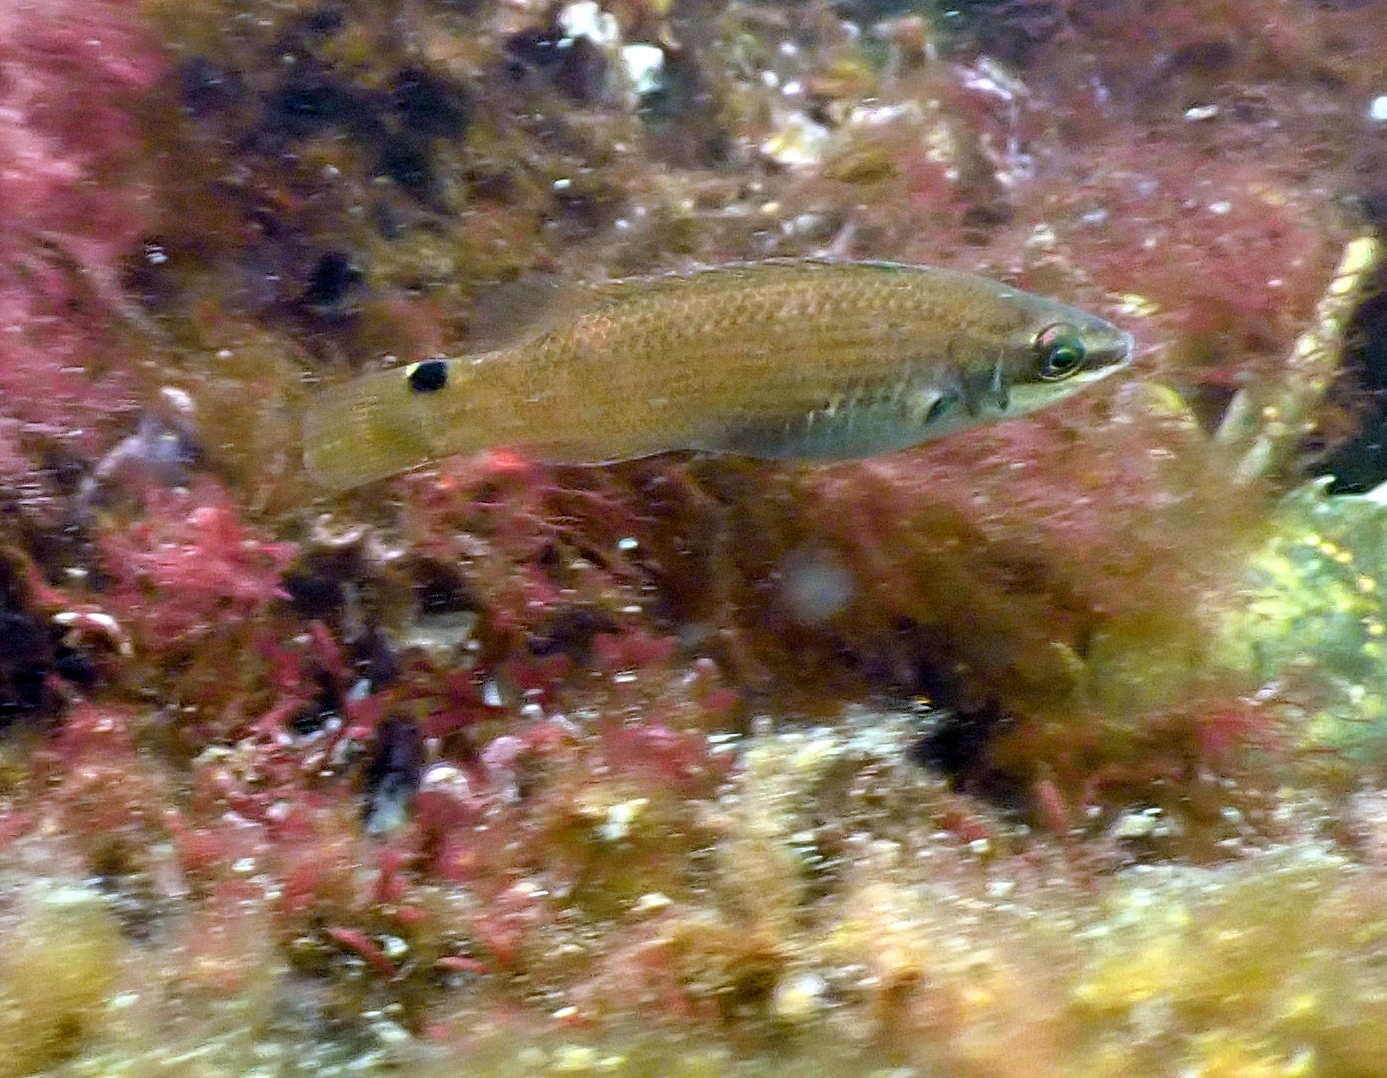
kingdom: Animalia
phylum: Chordata
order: Perciformes
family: Labridae
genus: Ctenolabrus
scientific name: Ctenolabrus rupestris
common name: Goldsinny
